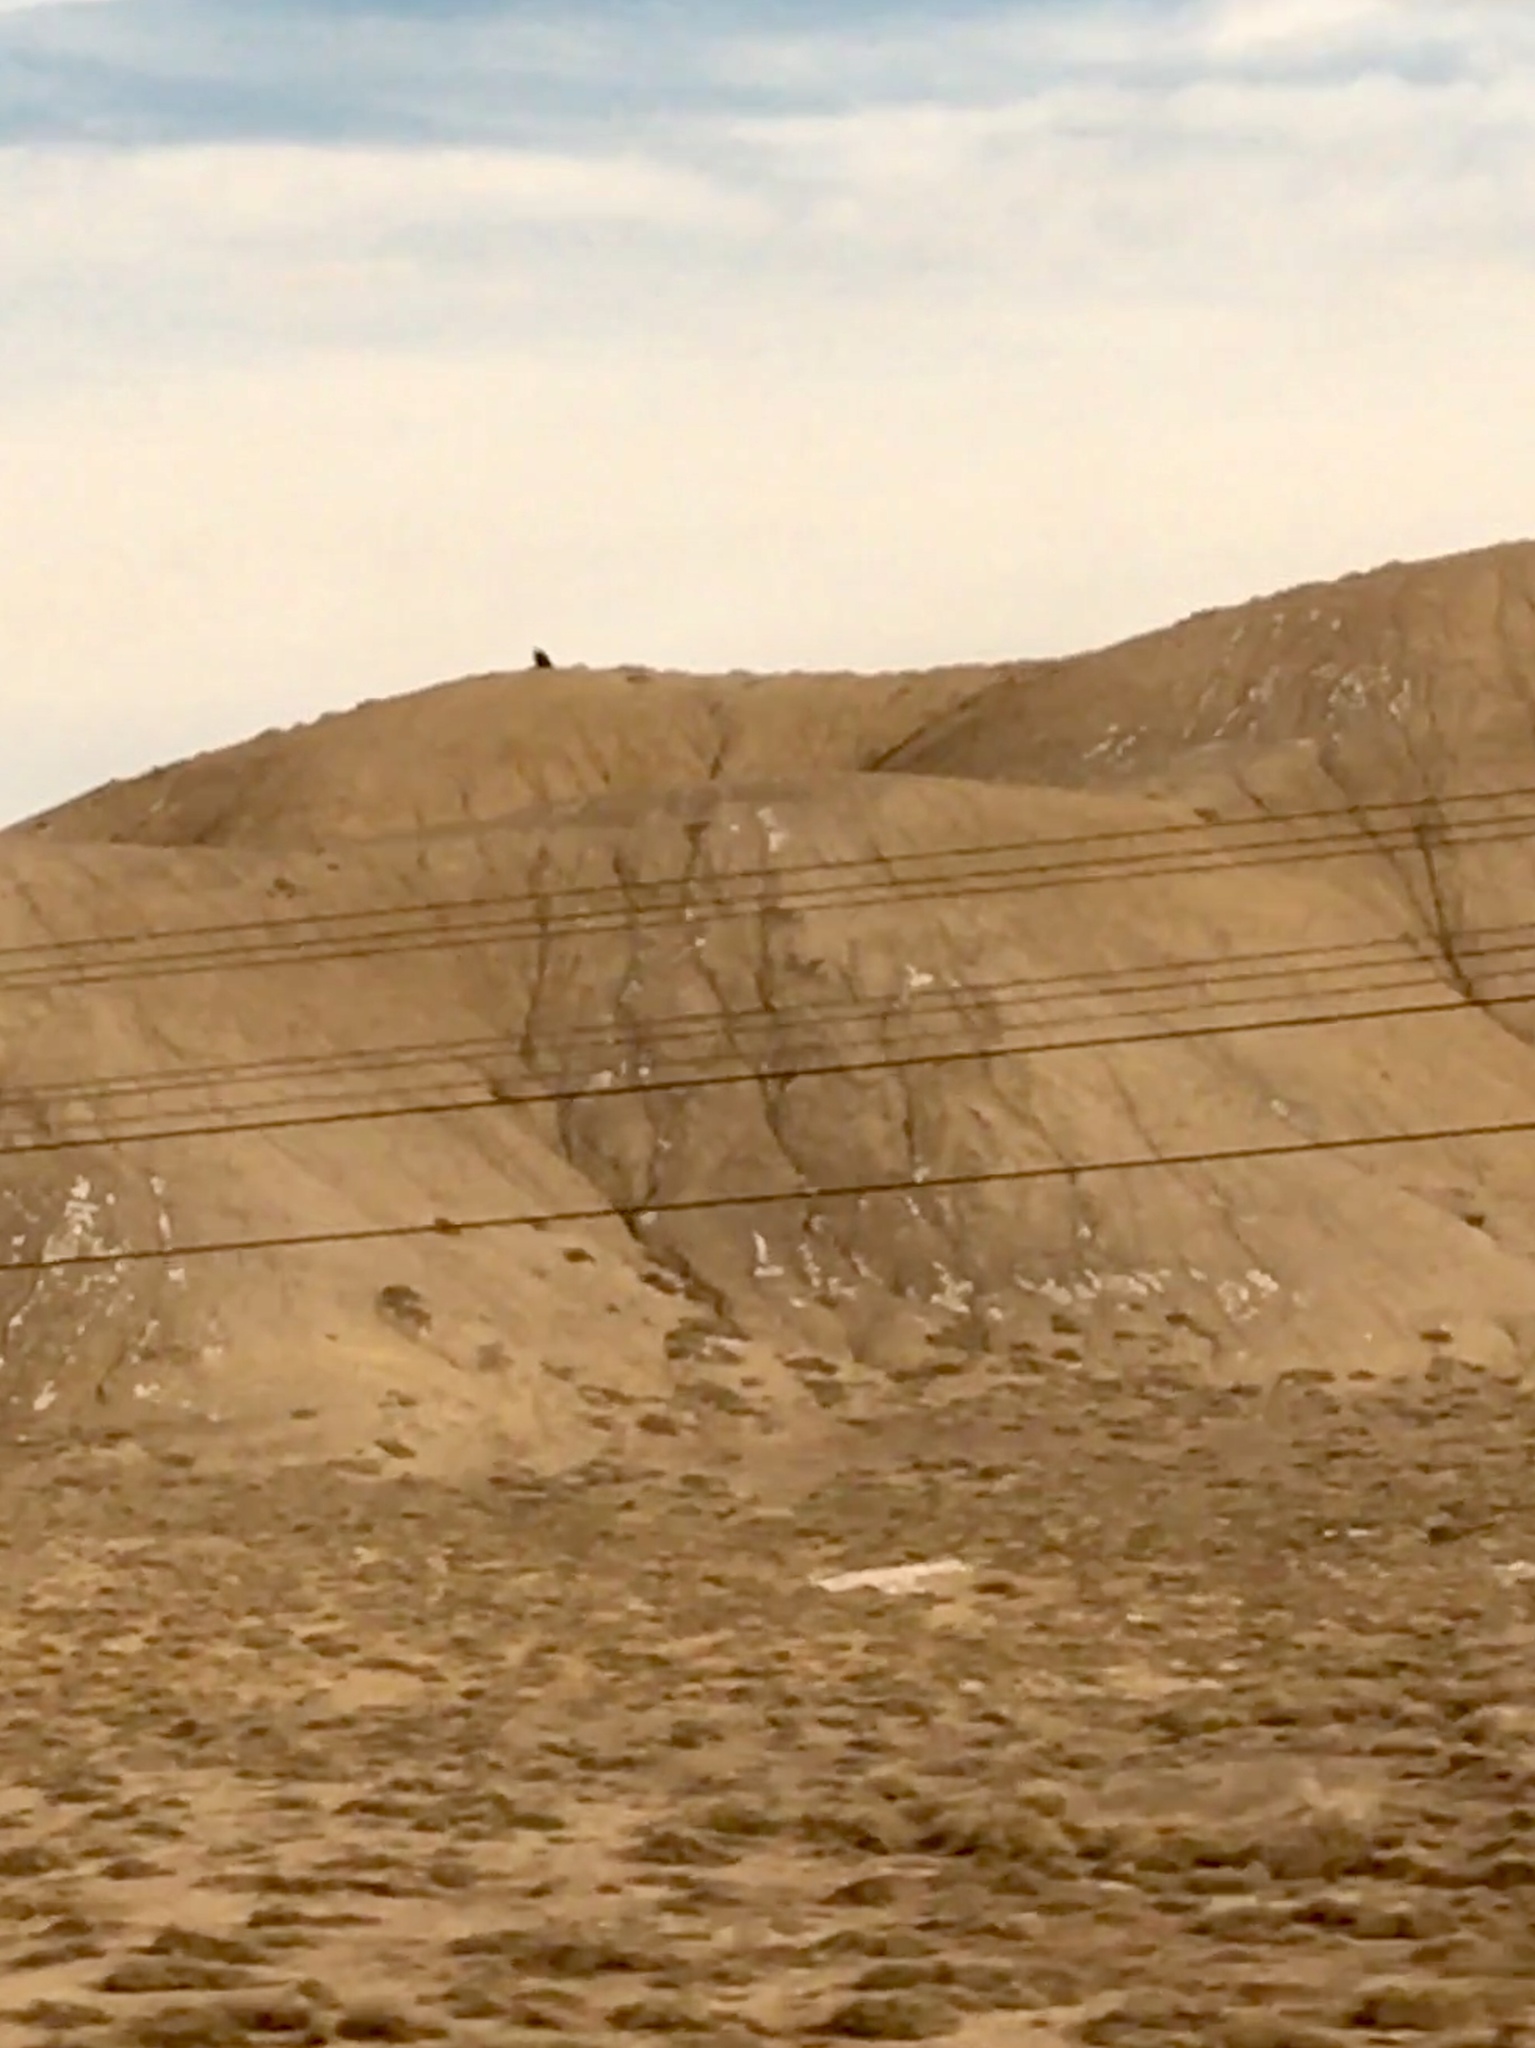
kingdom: Animalia
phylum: Chordata
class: Aves
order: Accipitriformes
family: Accipitridae
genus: Haliaeetus
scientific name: Haliaeetus leucocephalus
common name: Bald eagle
